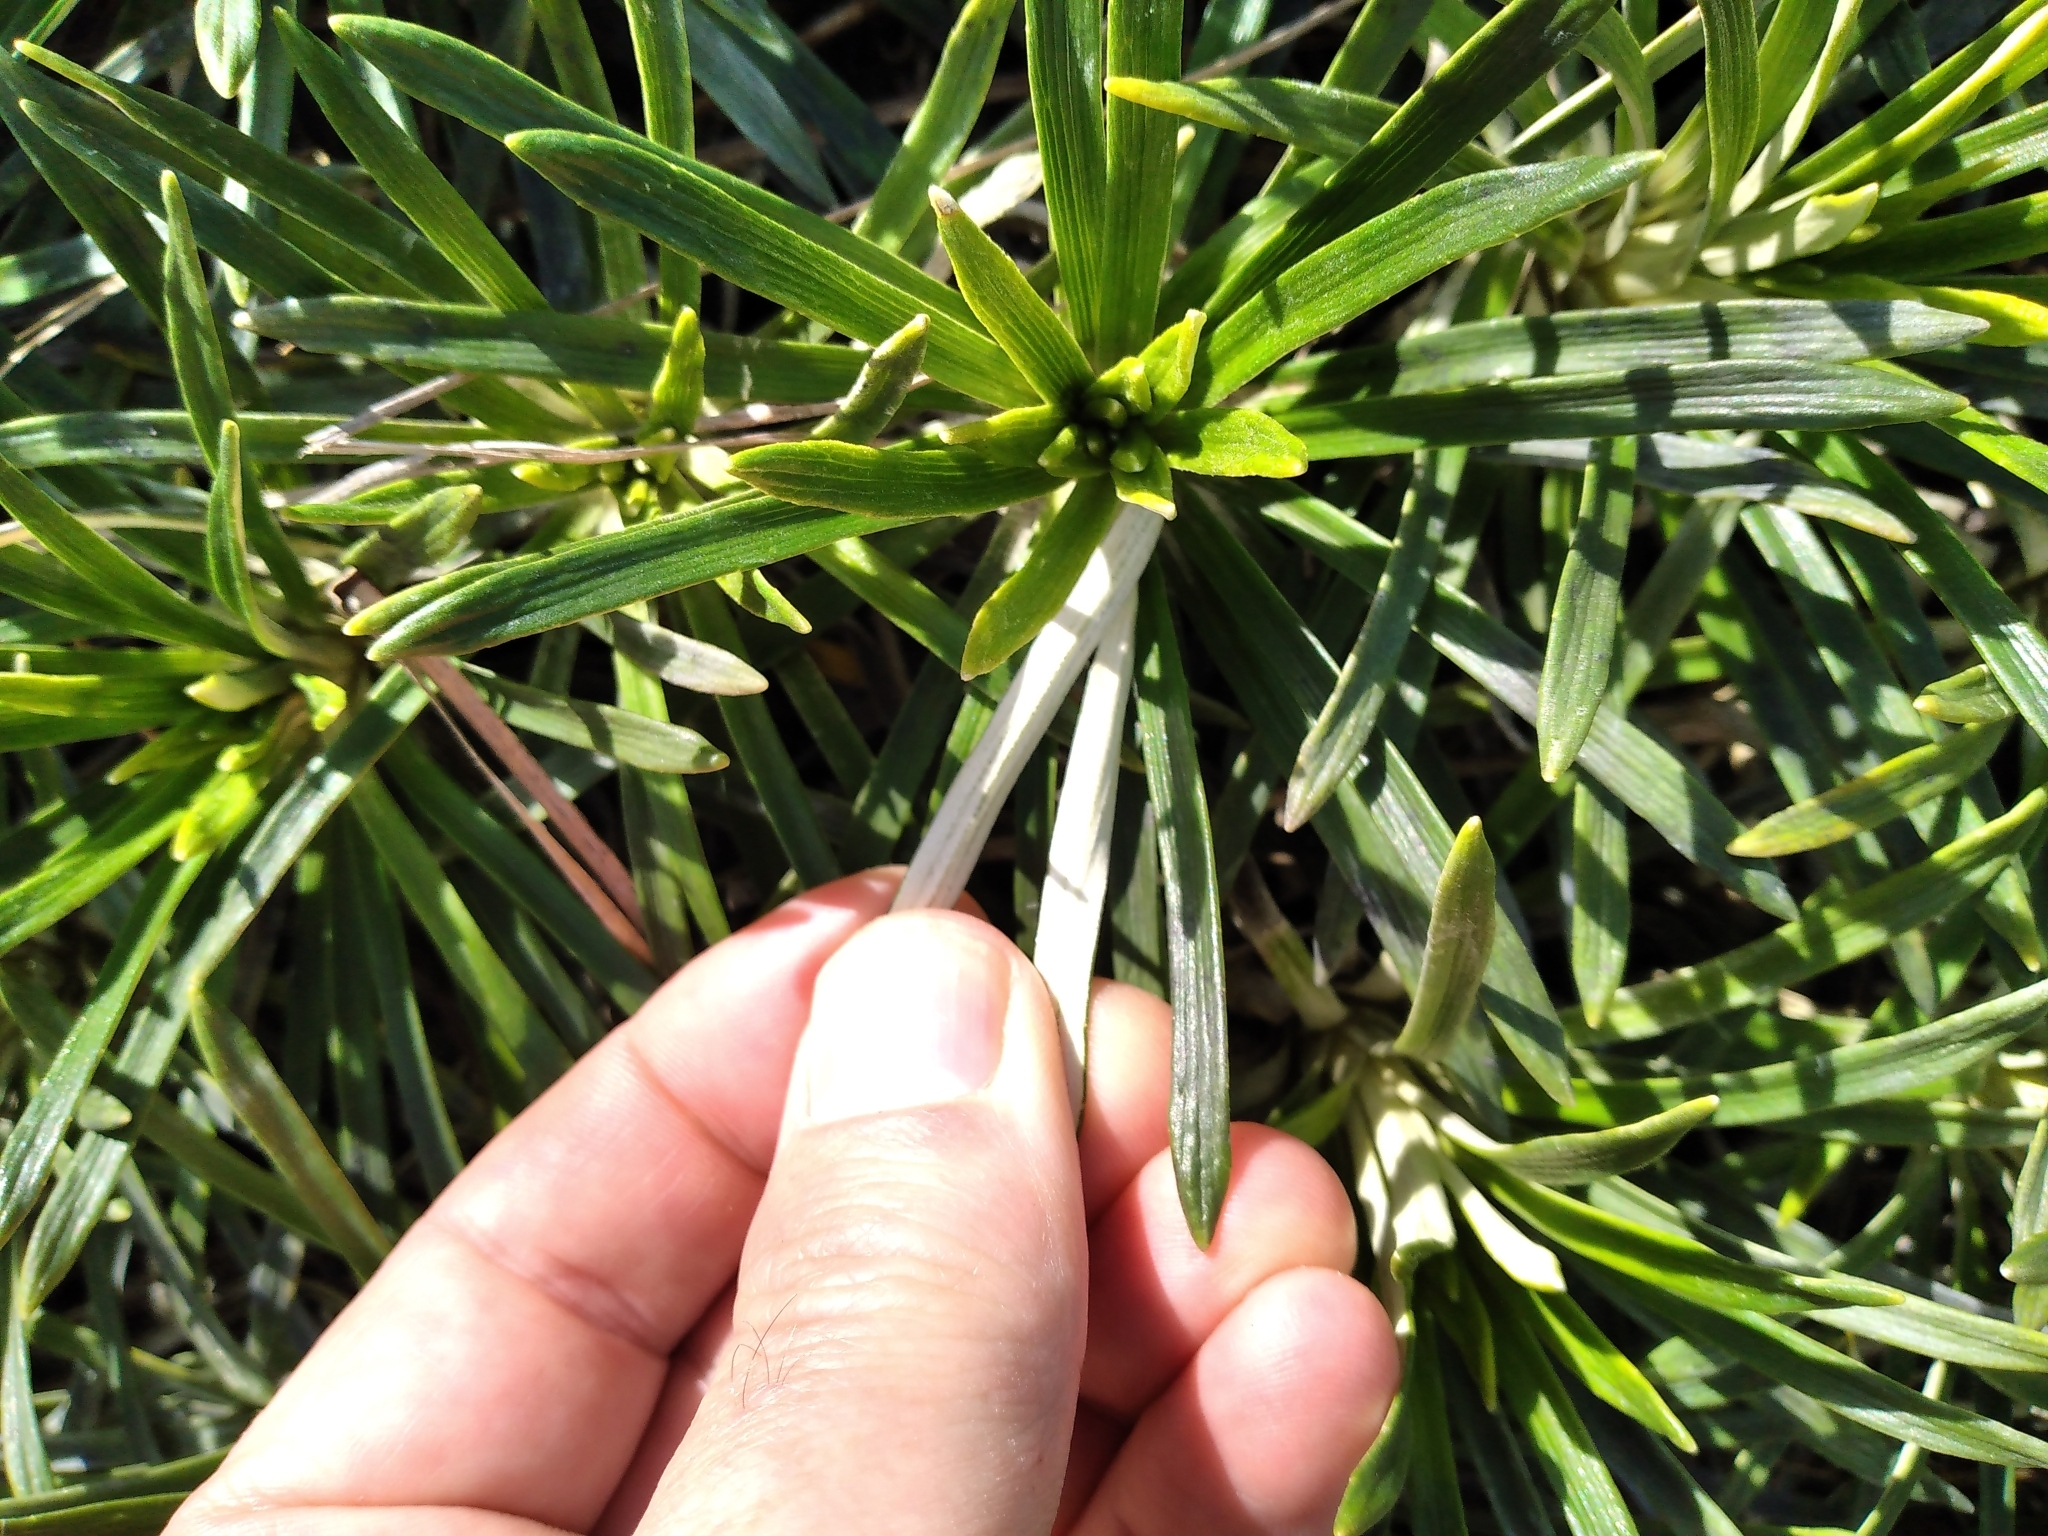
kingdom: Plantae
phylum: Tracheophyta
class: Magnoliopsida
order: Asterales
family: Asteraceae
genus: Celmisia
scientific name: Celmisia viscosa
